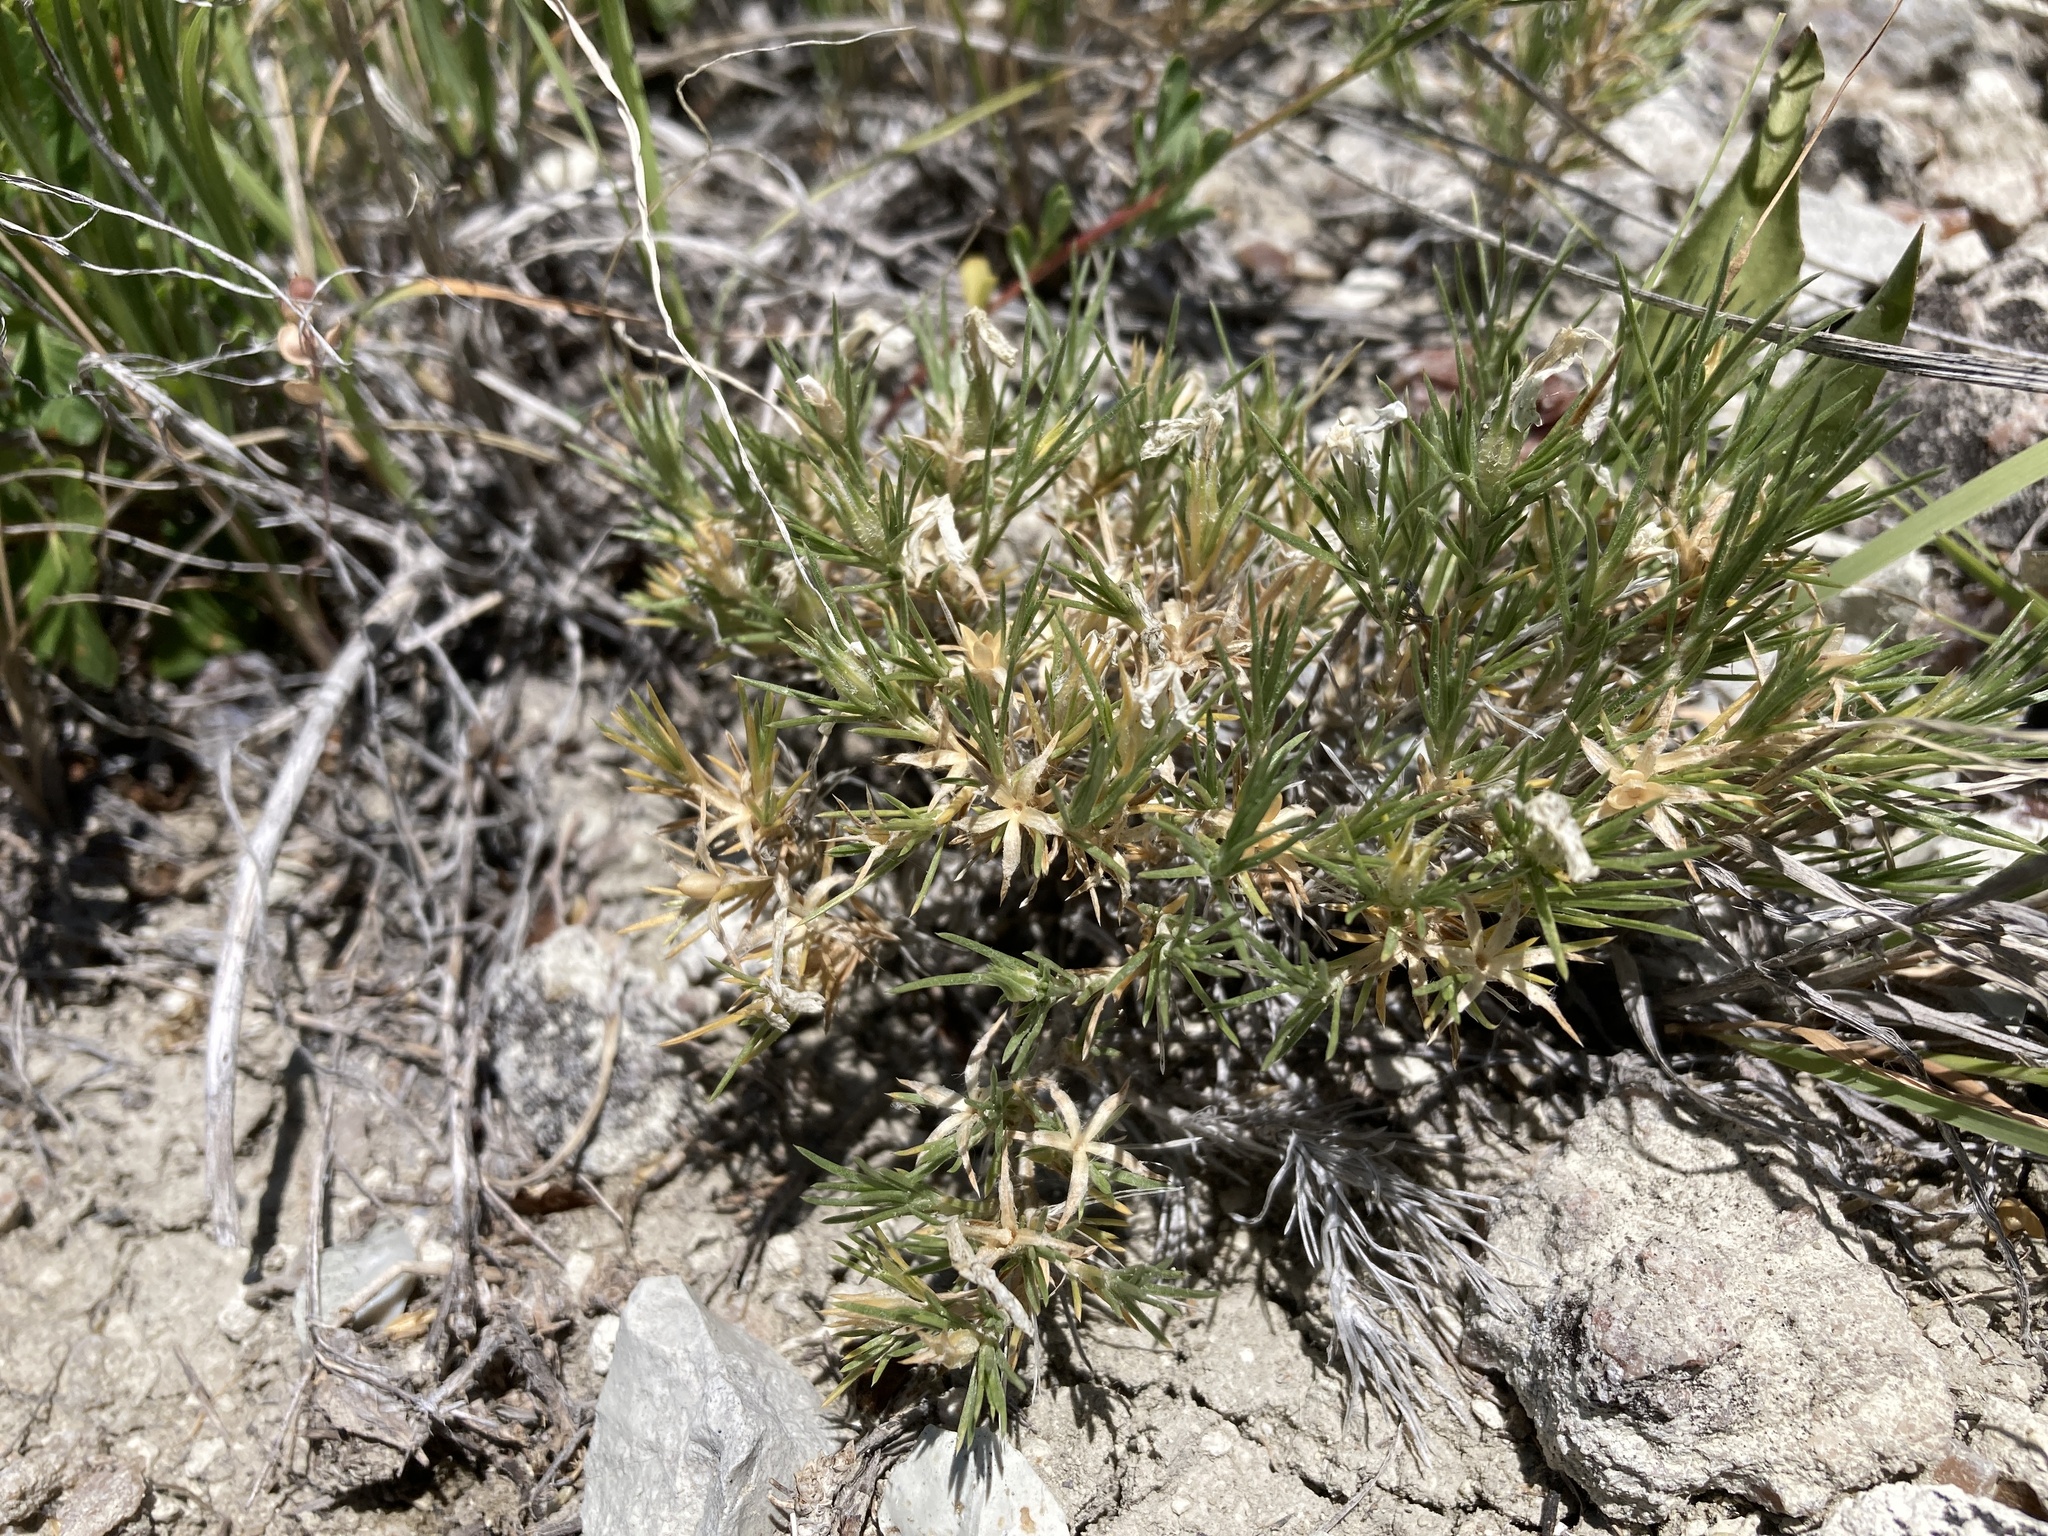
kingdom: Plantae
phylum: Tracheophyta
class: Magnoliopsida
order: Ericales
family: Polemoniaceae
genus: Phlox
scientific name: Phlox andicola
